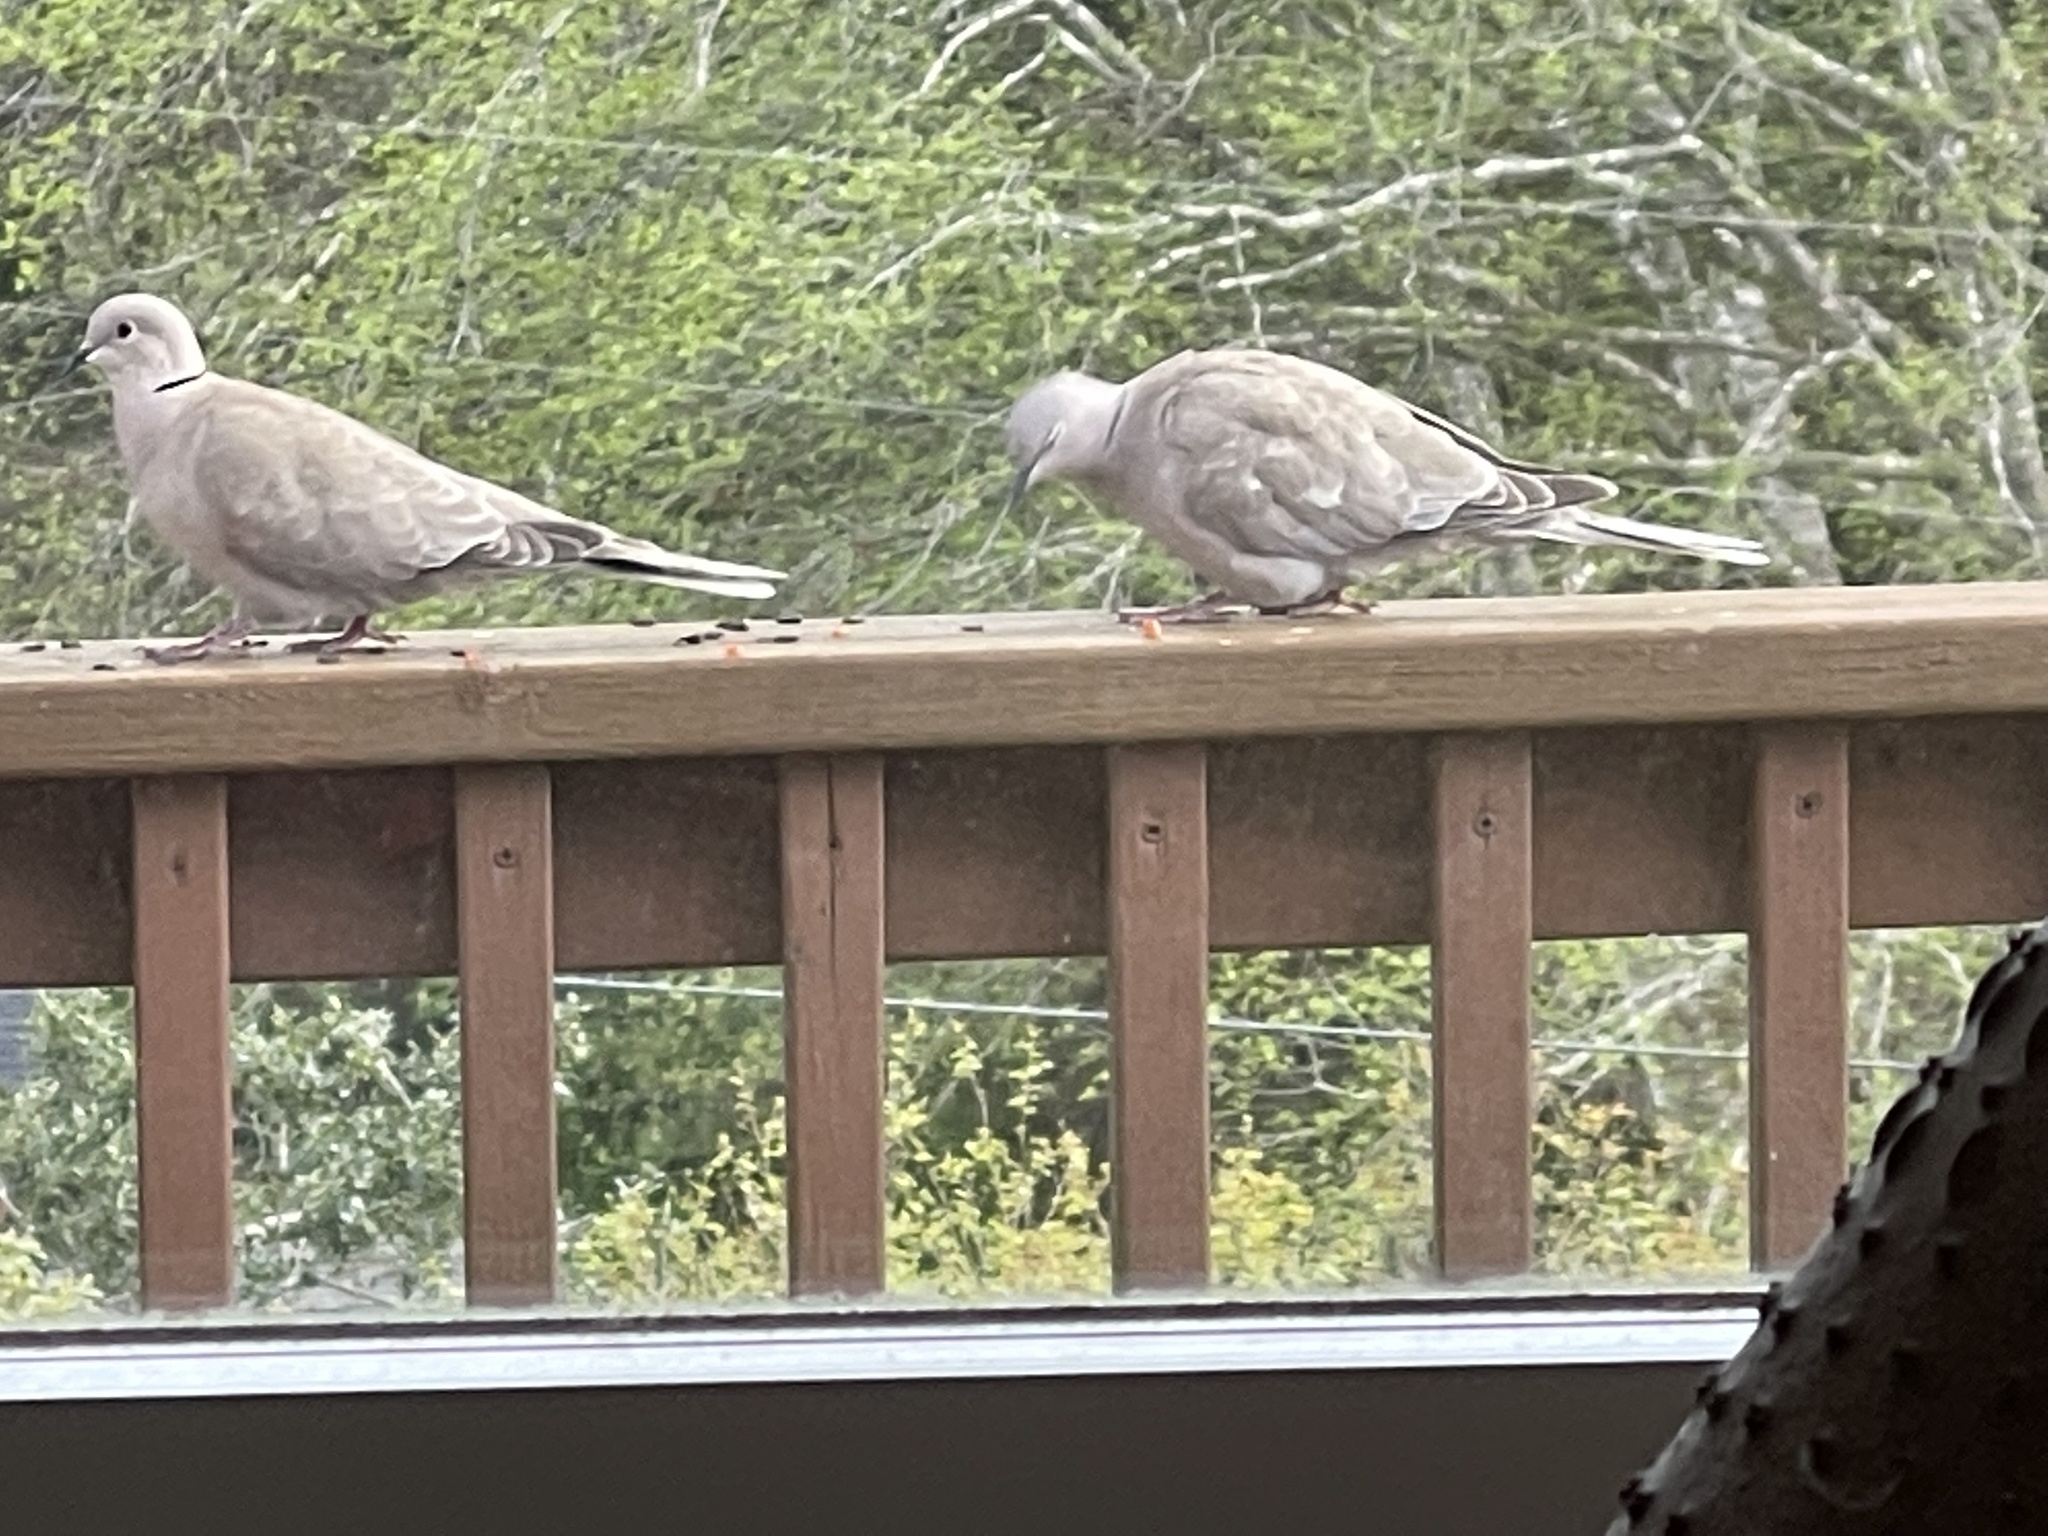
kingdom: Animalia
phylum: Chordata
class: Aves
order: Columbiformes
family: Columbidae
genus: Streptopelia
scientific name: Streptopelia decaocto
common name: Eurasian collared dove
